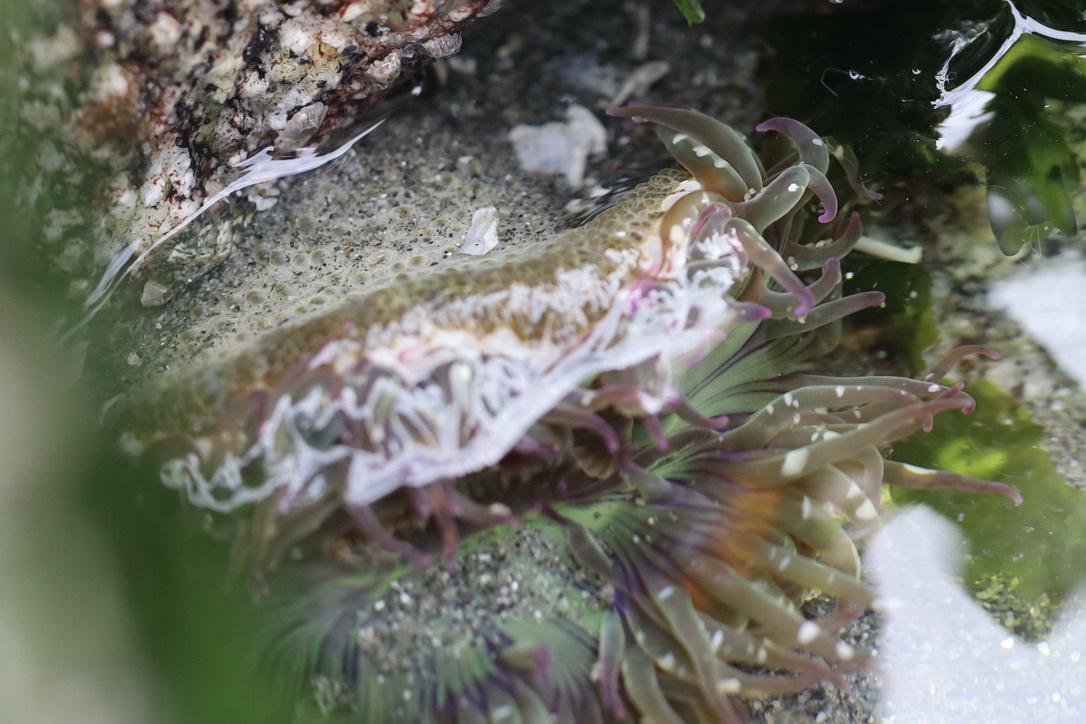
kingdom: Animalia
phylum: Cnidaria
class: Anthozoa
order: Actiniaria
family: Actiniidae
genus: Anthopleura
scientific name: Anthopleura elegantissima
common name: Clonal anemone
